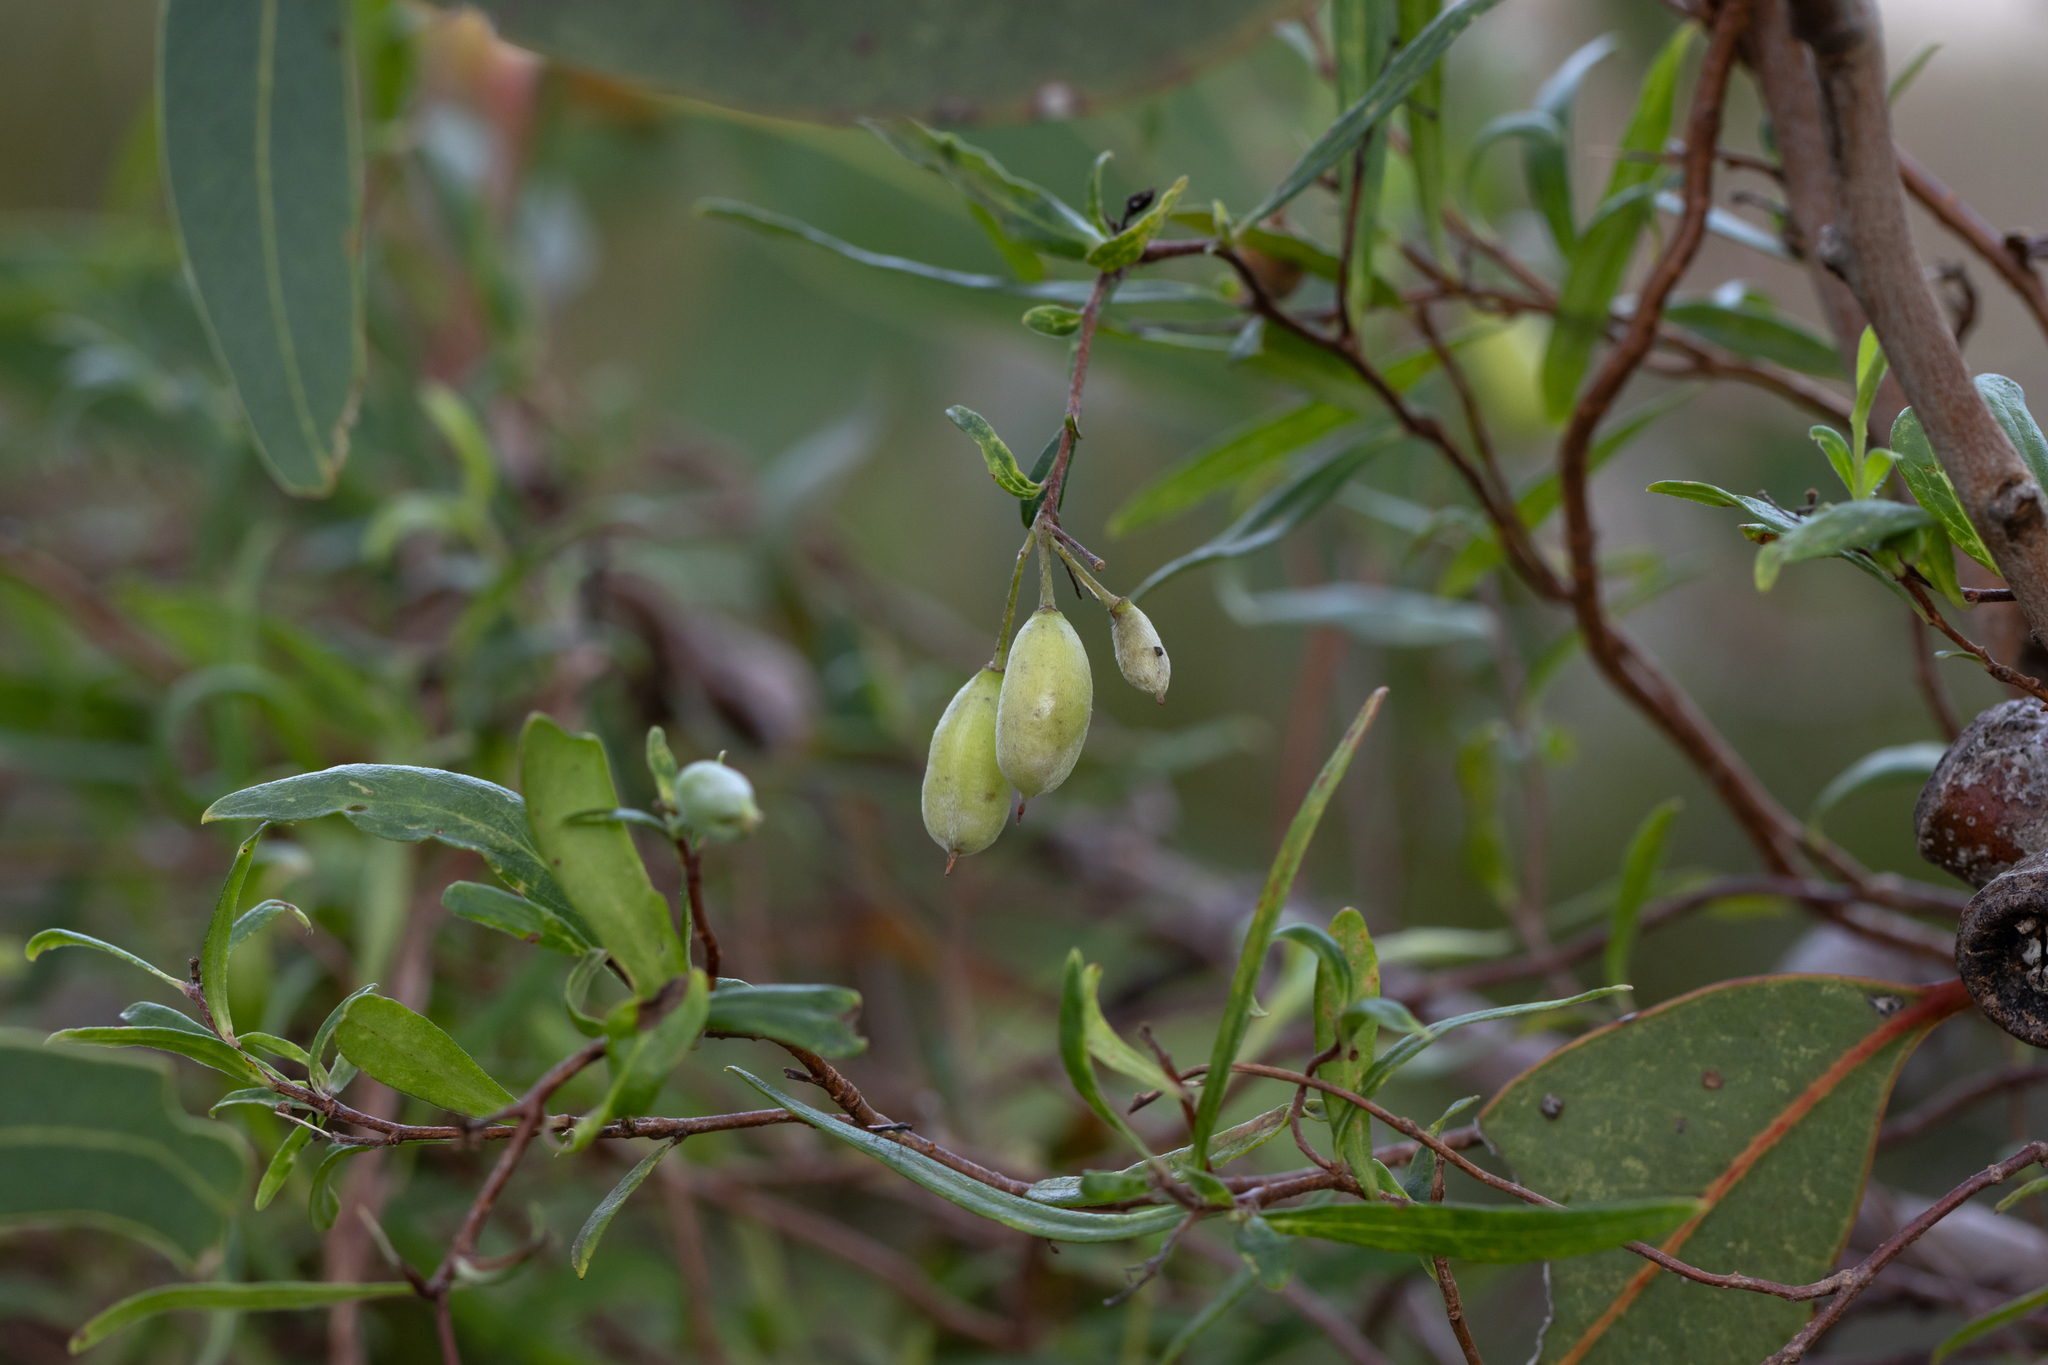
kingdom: Plantae
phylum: Tracheophyta
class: Magnoliopsida
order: Apiales
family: Pittosporaceae
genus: Billardiera
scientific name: Billardiera cymosa
